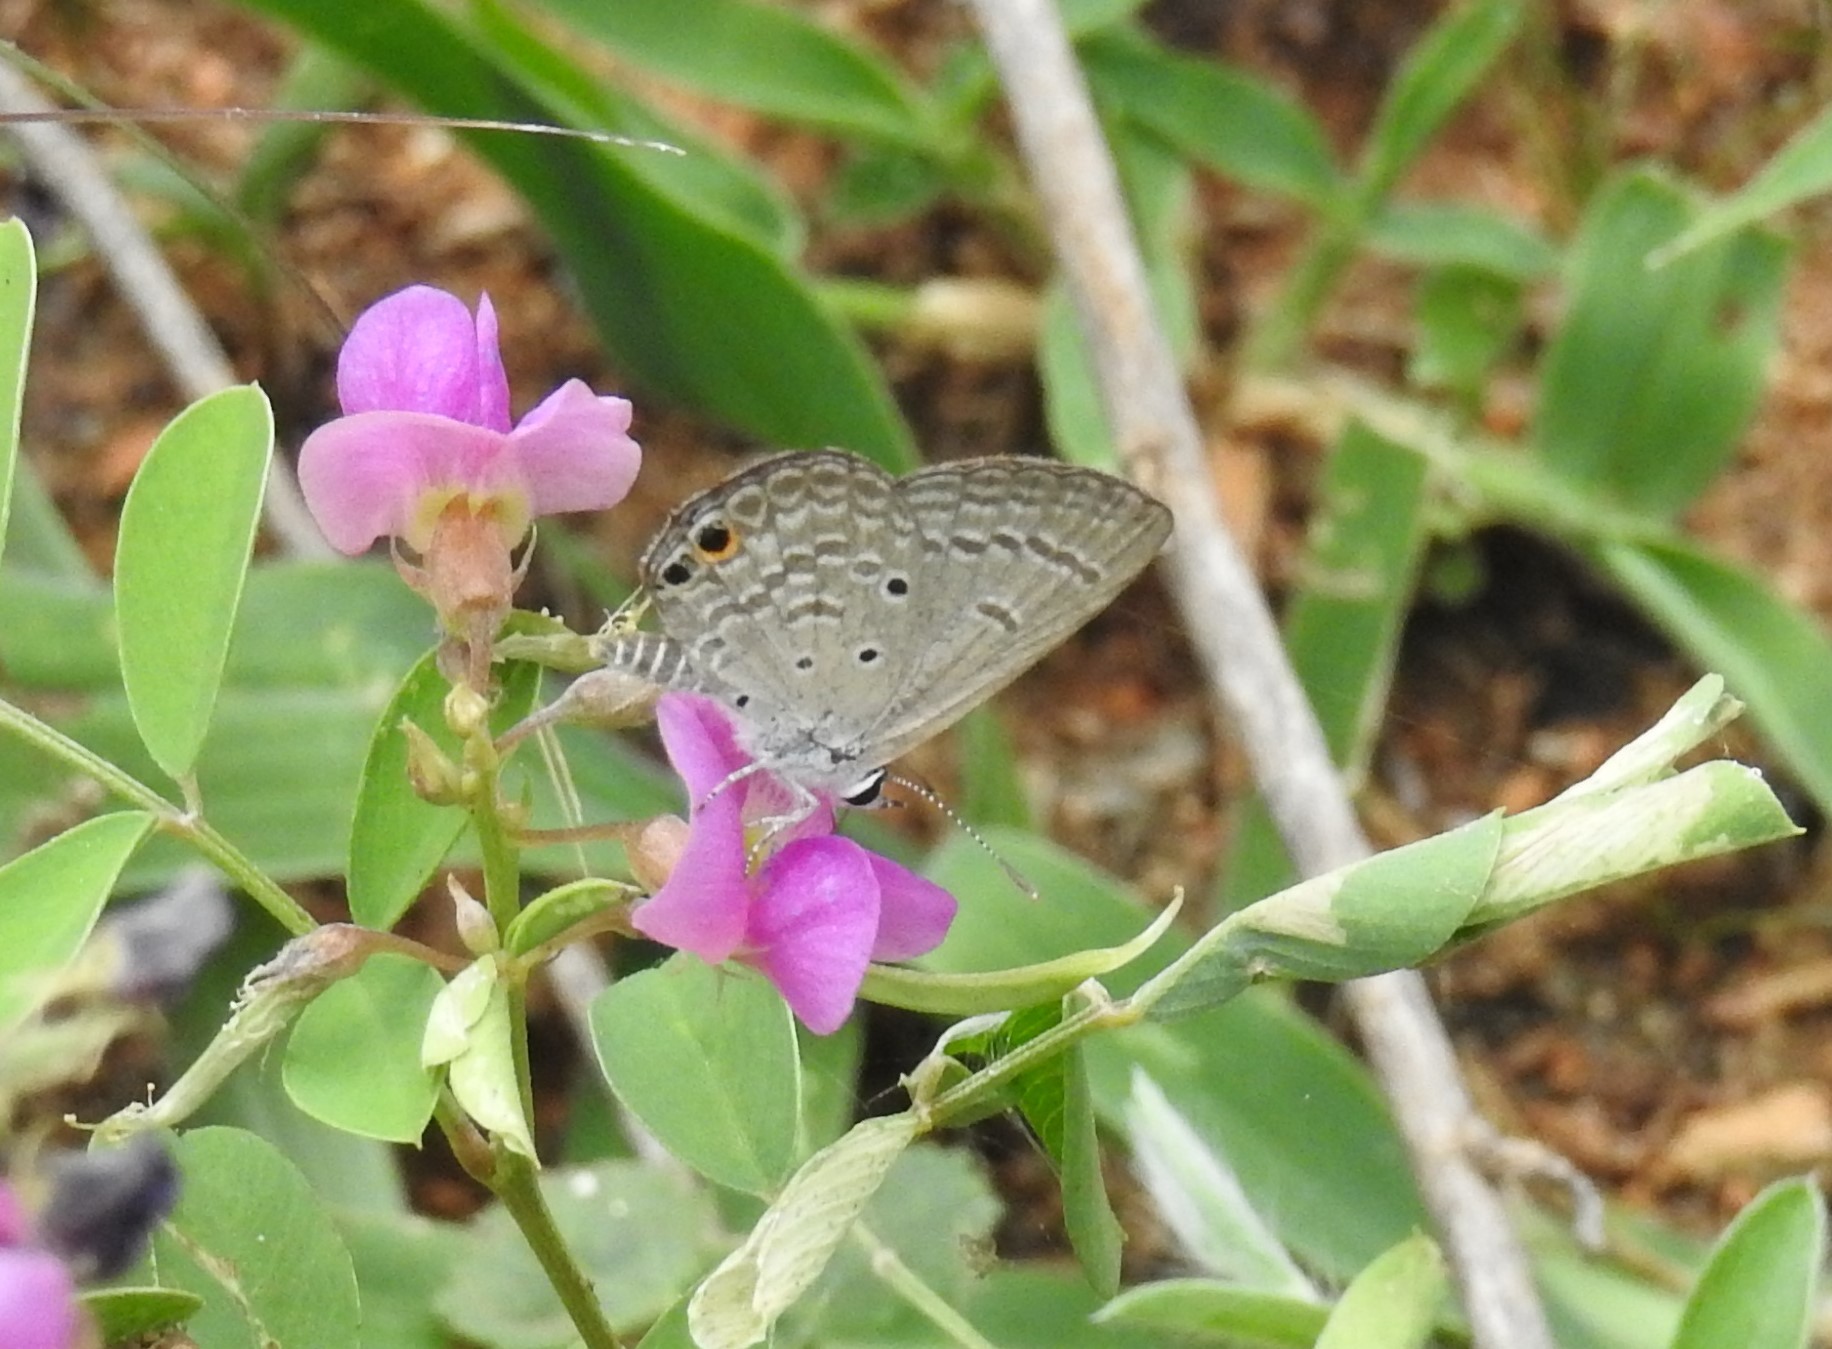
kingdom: Animalia
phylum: Arthropoda
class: Insecta
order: Lepidoptera
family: Lycaenidae
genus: Euchrysops
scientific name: Euchrysops cnejus
